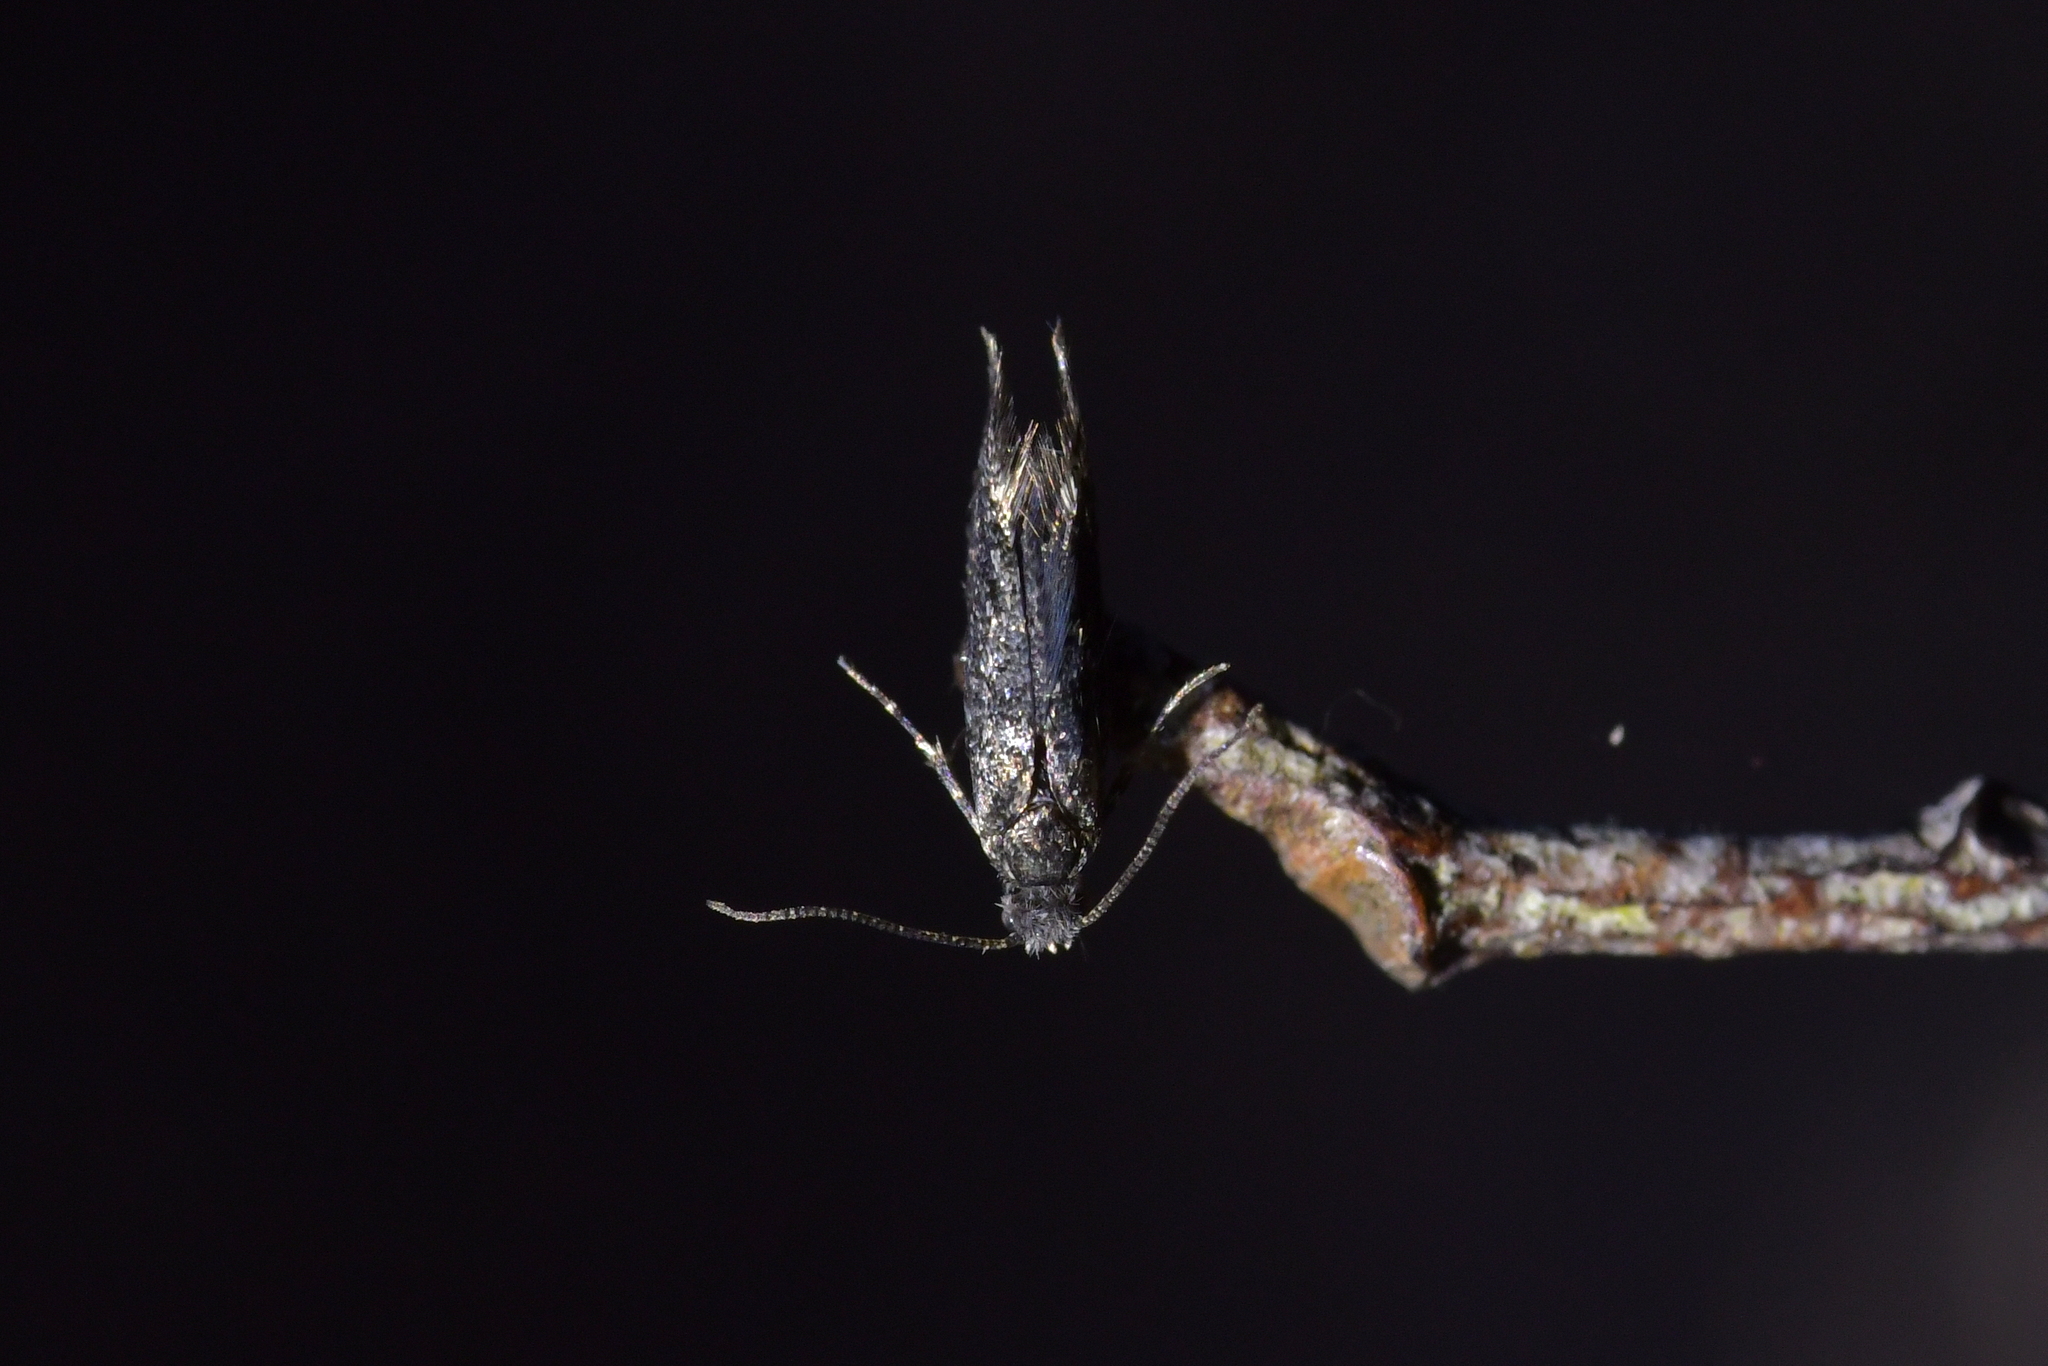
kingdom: Animalia
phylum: Arthropoda
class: Insecta
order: Lepidoptera
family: Tineidae
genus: Tinea
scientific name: Tinea fagicola
